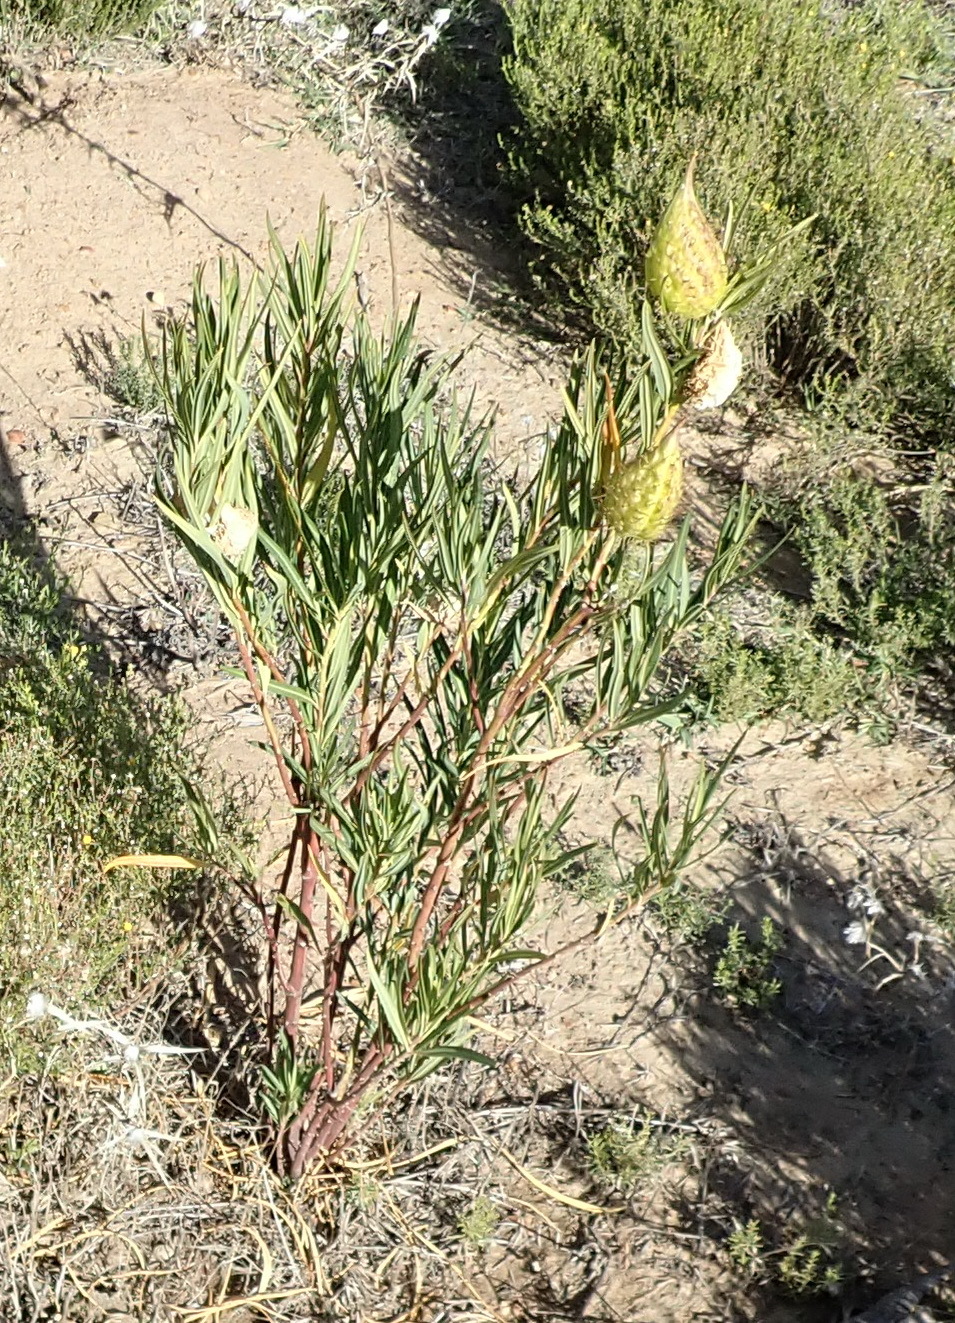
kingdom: Plantae
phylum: Tracheophyta
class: Magnoliopsida
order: Gentianales
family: Apocynaceae
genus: Gomphocarpus
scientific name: Gomphocarpus fruticosus
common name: Milkweed
